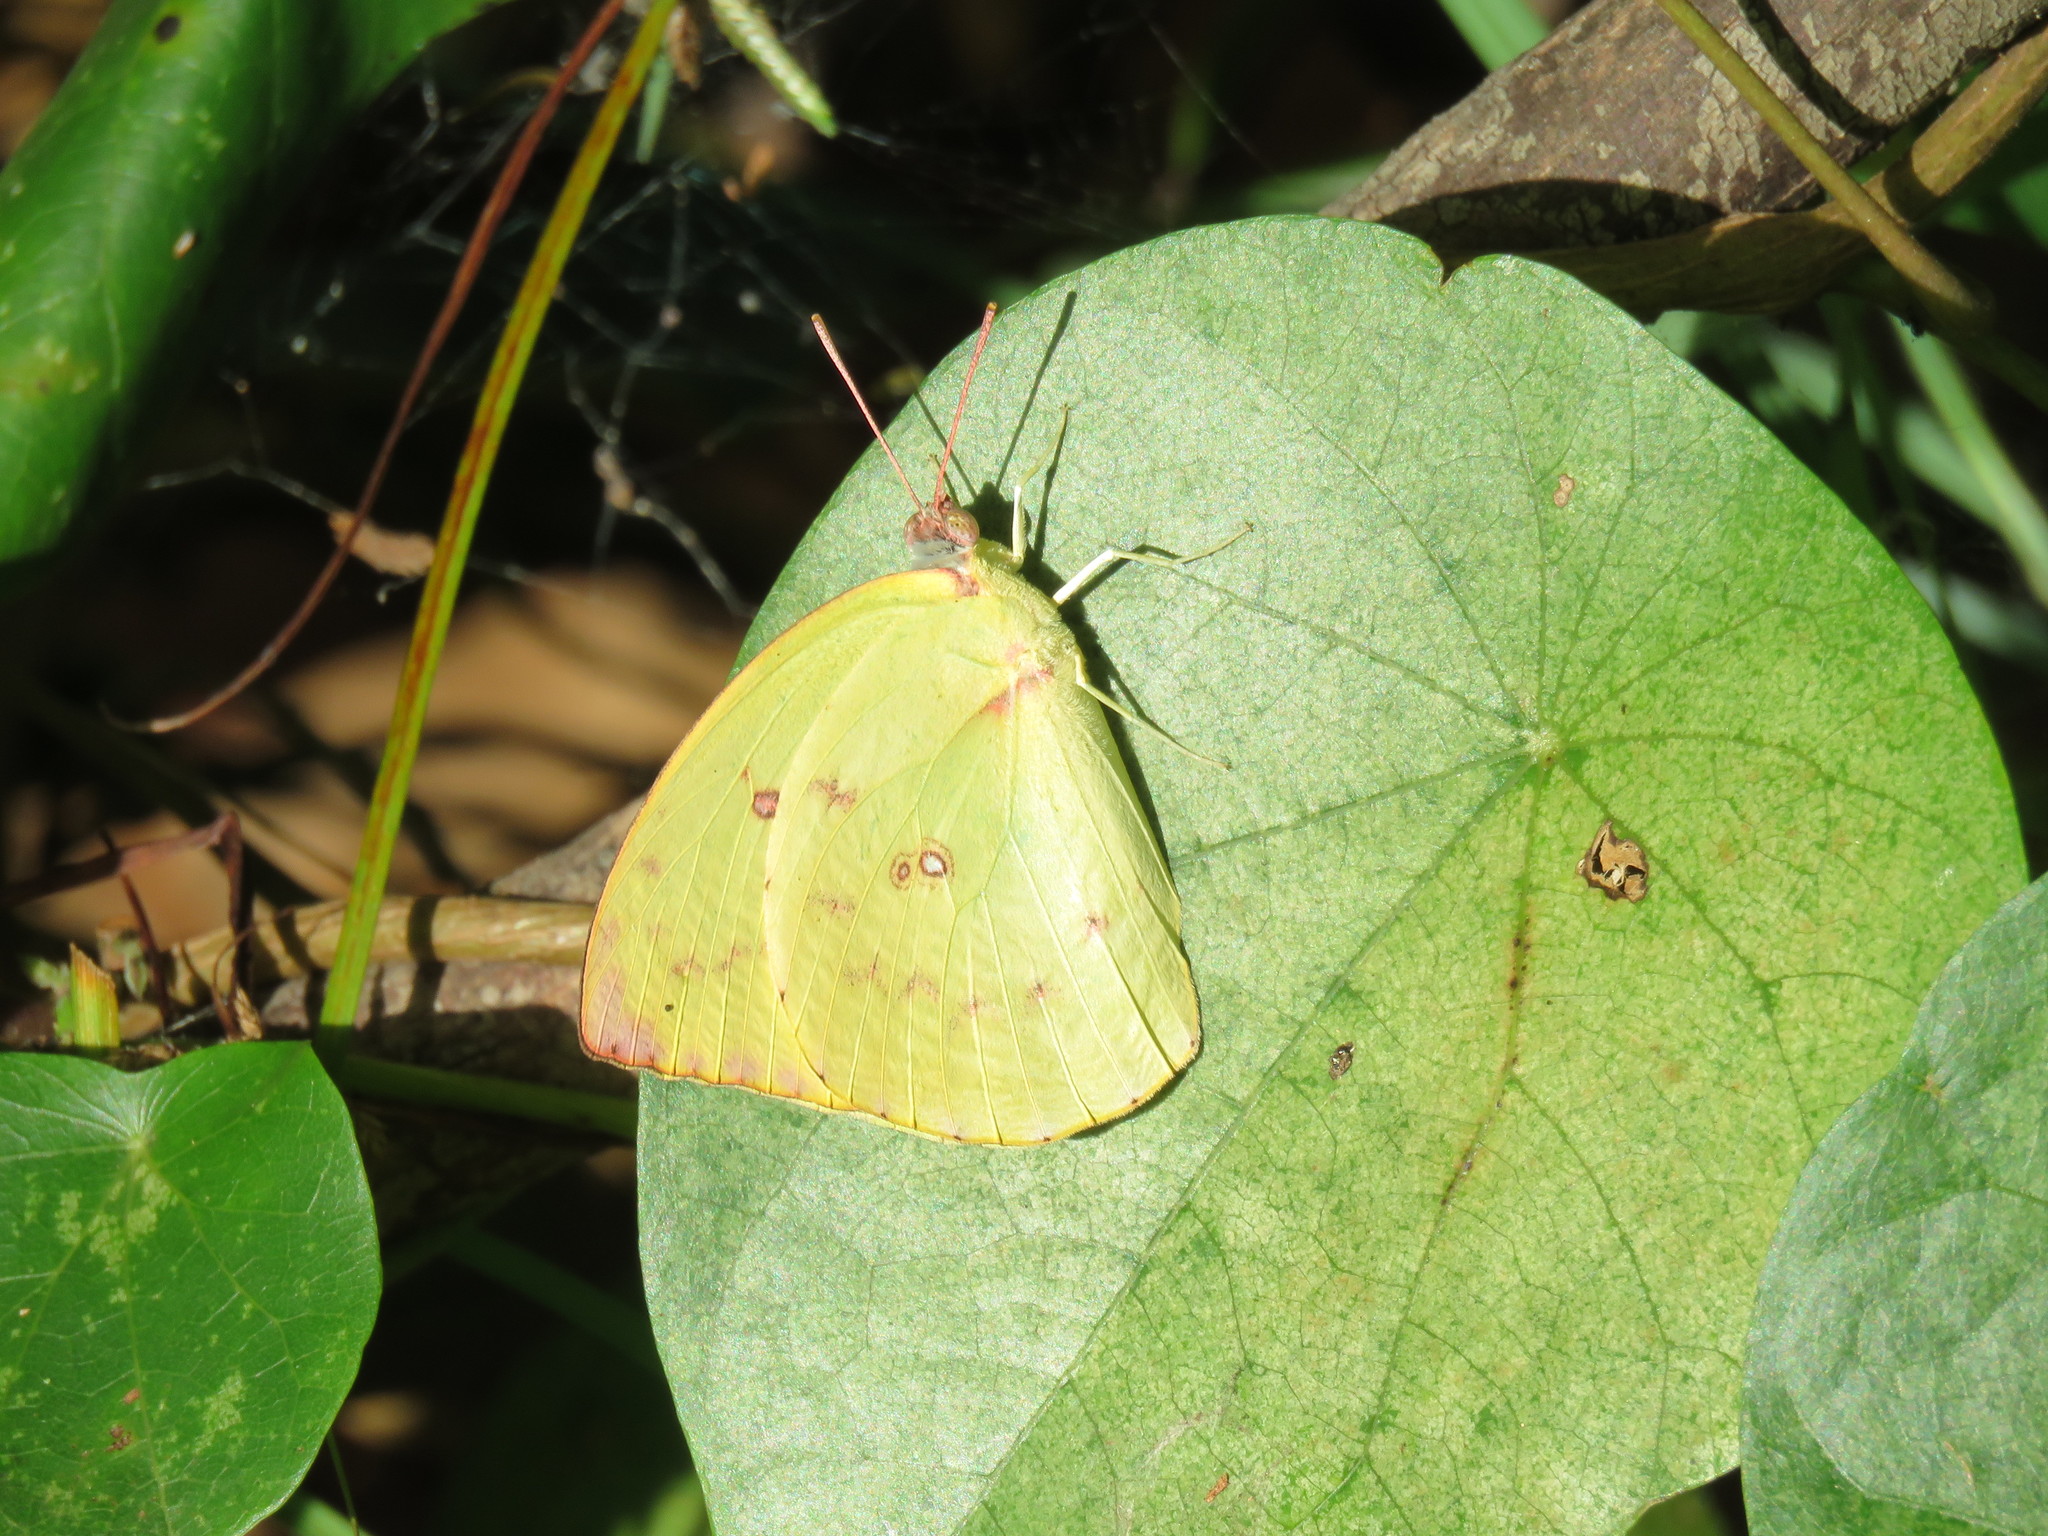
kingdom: Animalia
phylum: Arthropoda
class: Insecta
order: Lepidoptera
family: Pieridae
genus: Catopsilia
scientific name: Catopsilia pomona
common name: Common emigrant
